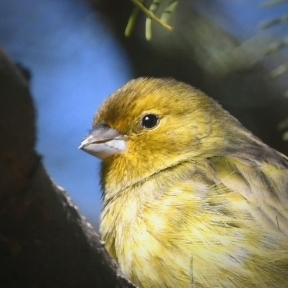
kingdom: Animalia
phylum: Chordata
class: Aves
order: Passeriformes
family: Thraupidae
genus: Sicalis
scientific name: Sicalis flaveola
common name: Saffron finch
